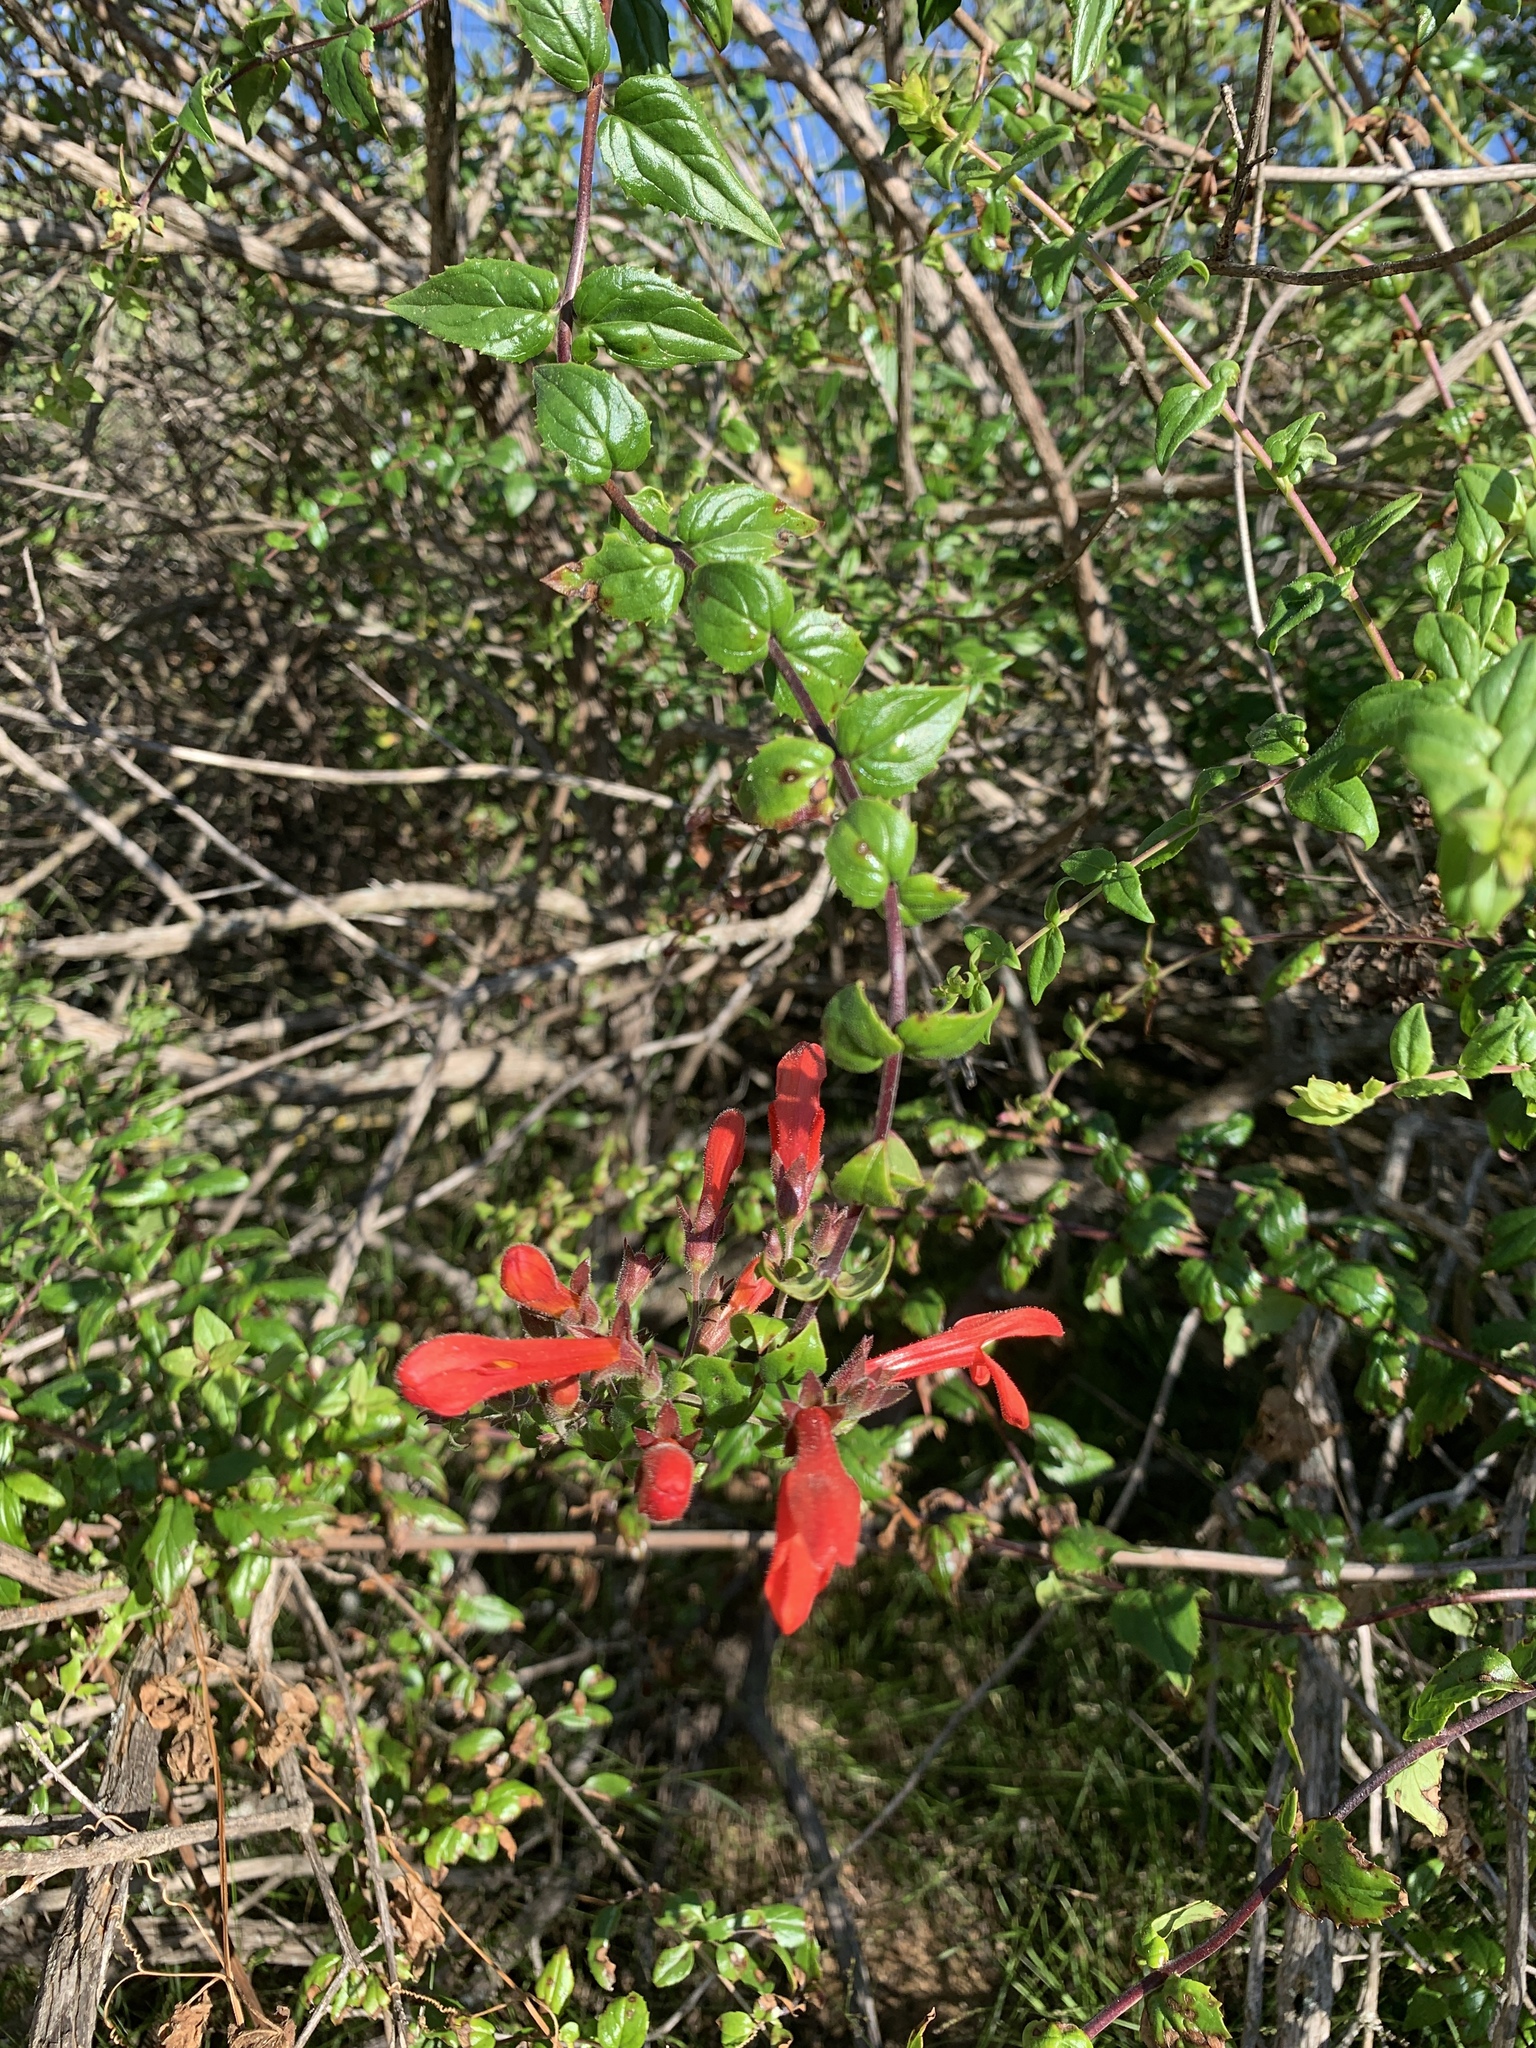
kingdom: Plantae
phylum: Tracheophyta
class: Magnoliopsida
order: Lamiales
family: Plantaginaceae
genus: Keckiella
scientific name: Keckiella cordifolia
